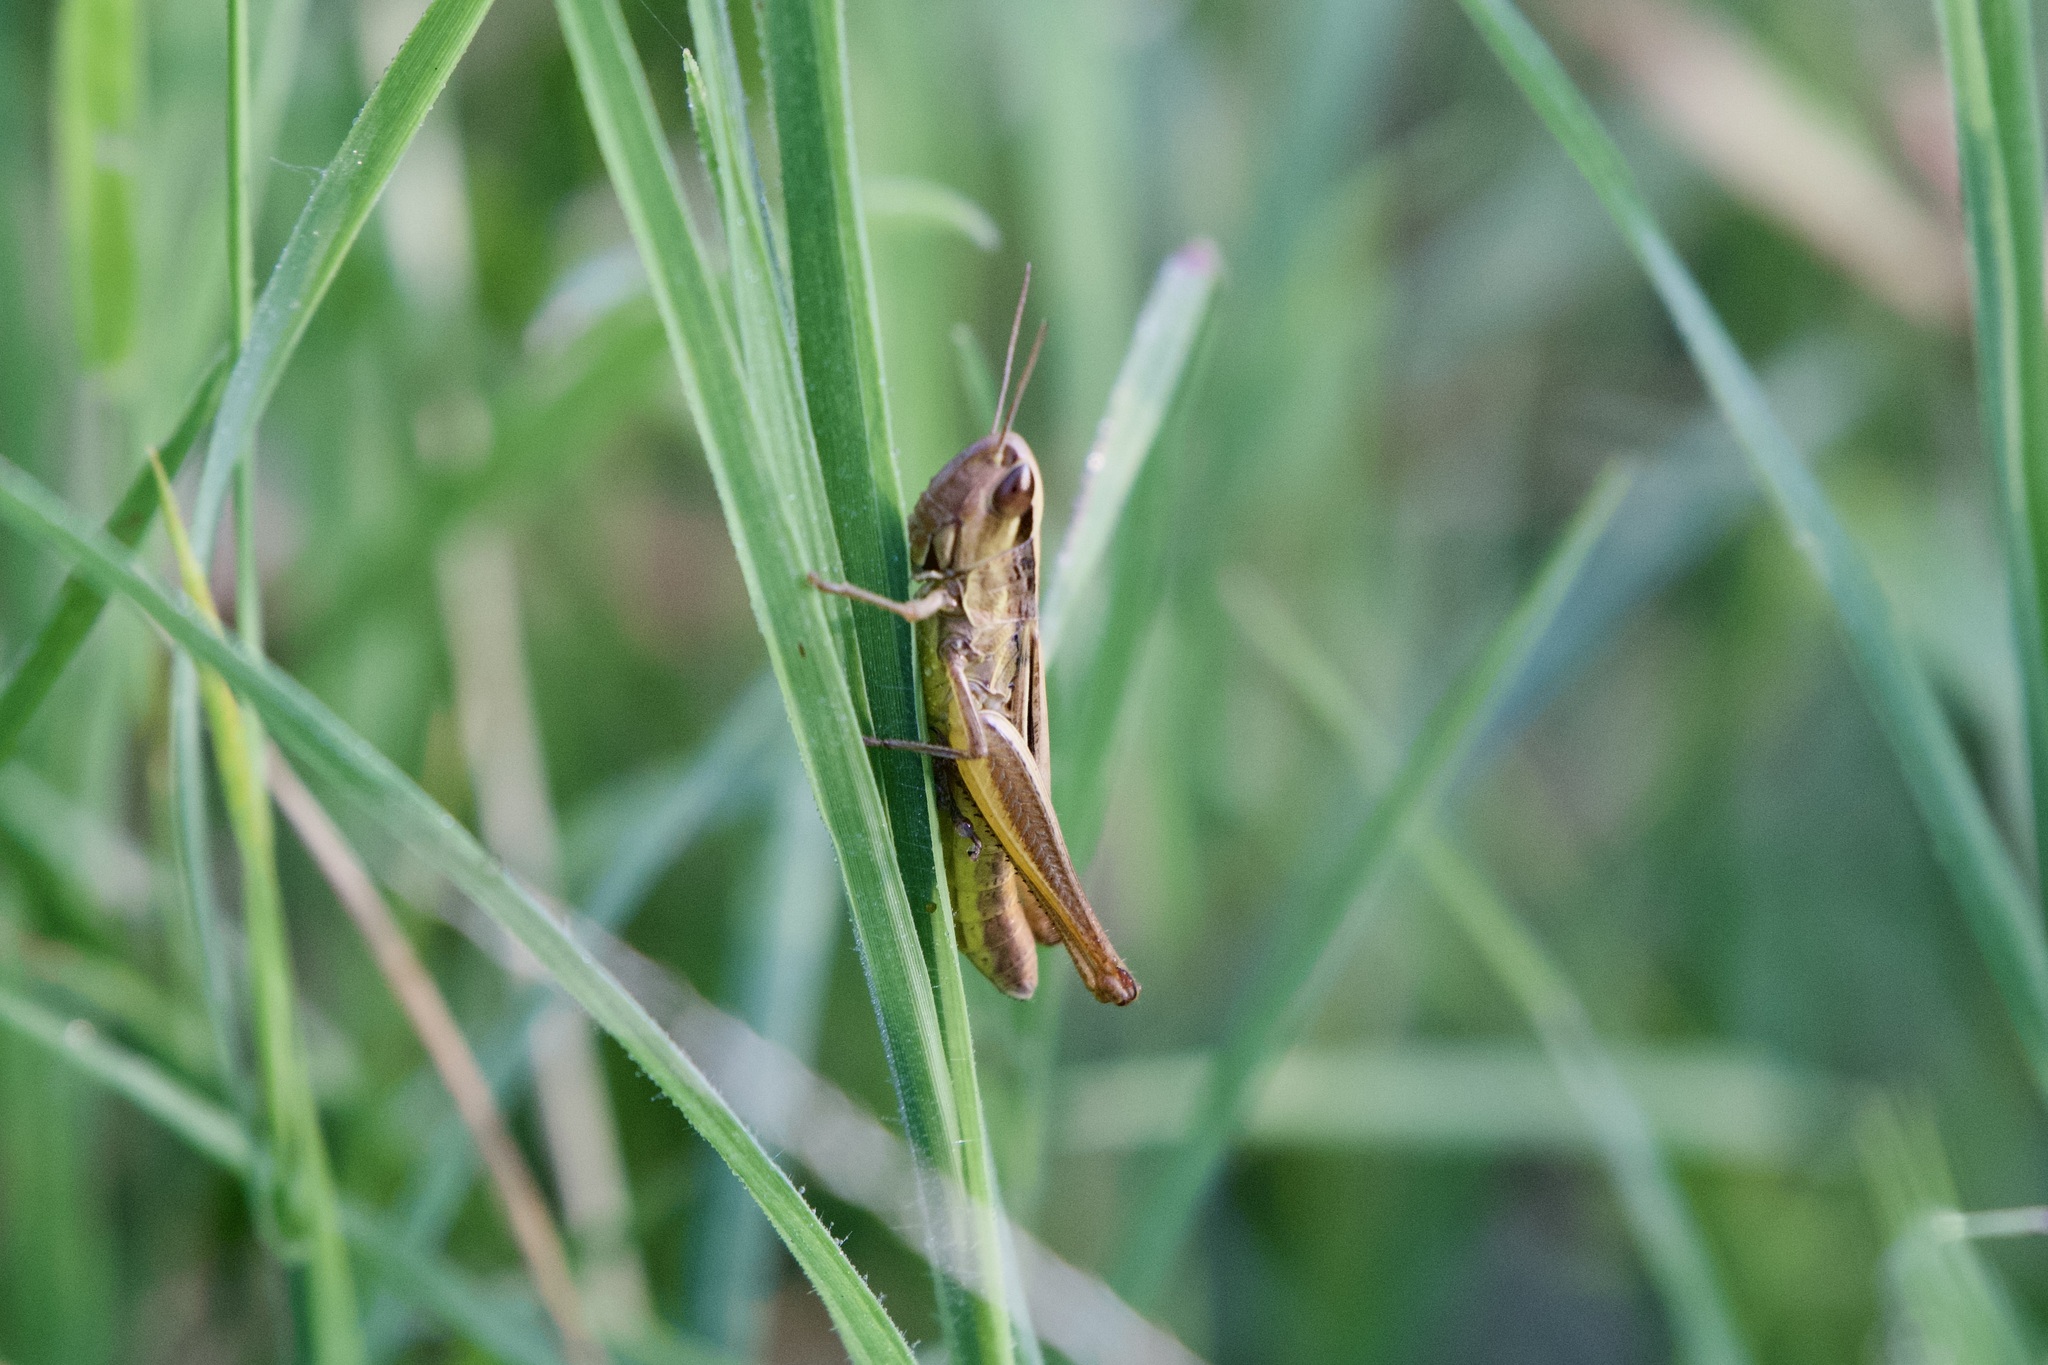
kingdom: Animalia
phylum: Arthropoda
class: Insecta
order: Orthoptera
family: Acrididae
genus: Euchorthippus
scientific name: Euchorthippus declivus
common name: Common straw grasshopper
